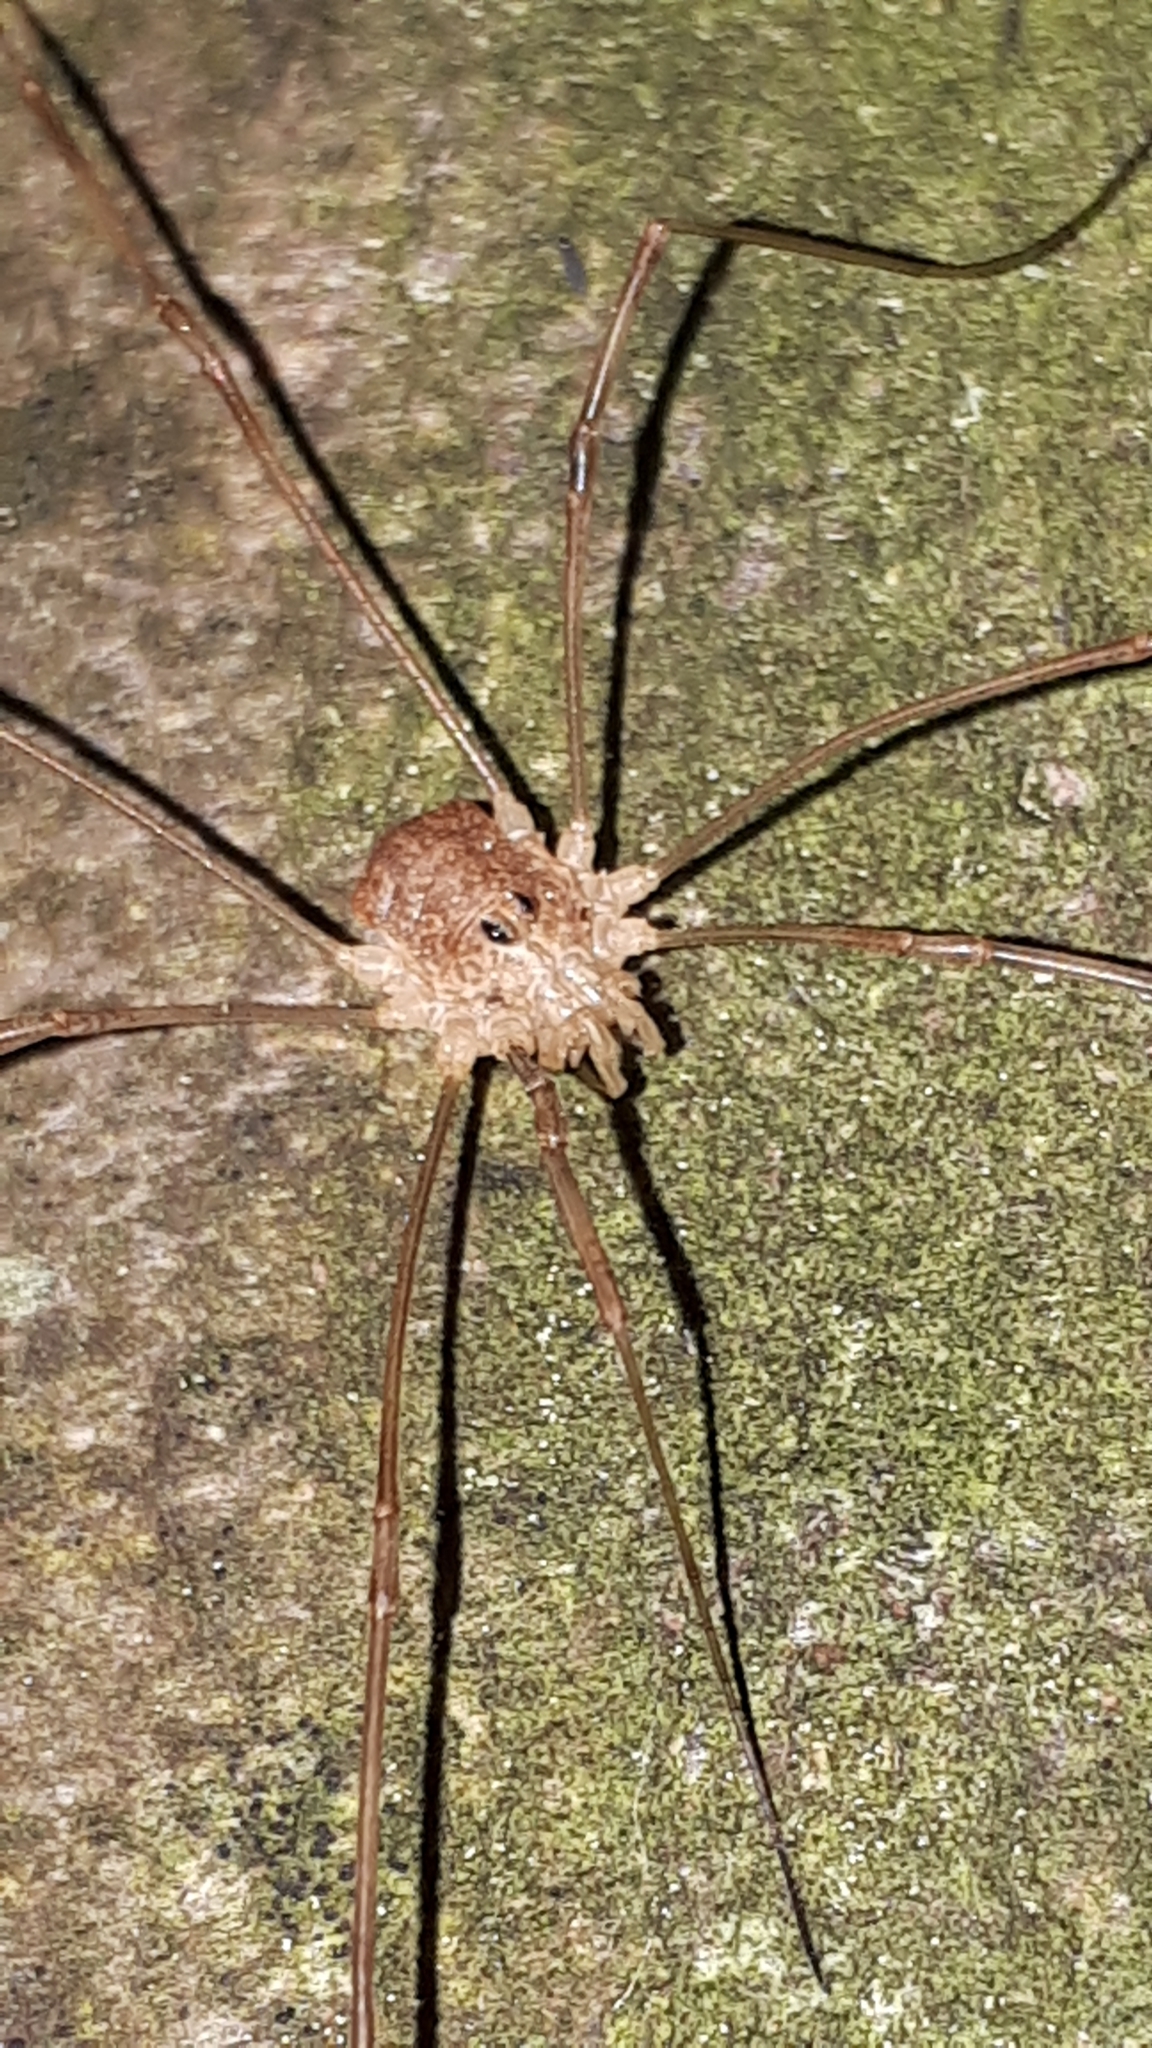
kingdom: Animalia
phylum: Arthropoda
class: Arachnida
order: Opiliones
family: Phalangiidae
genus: Rilaena
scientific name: Rilaena triangularis
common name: Spring harvestman
